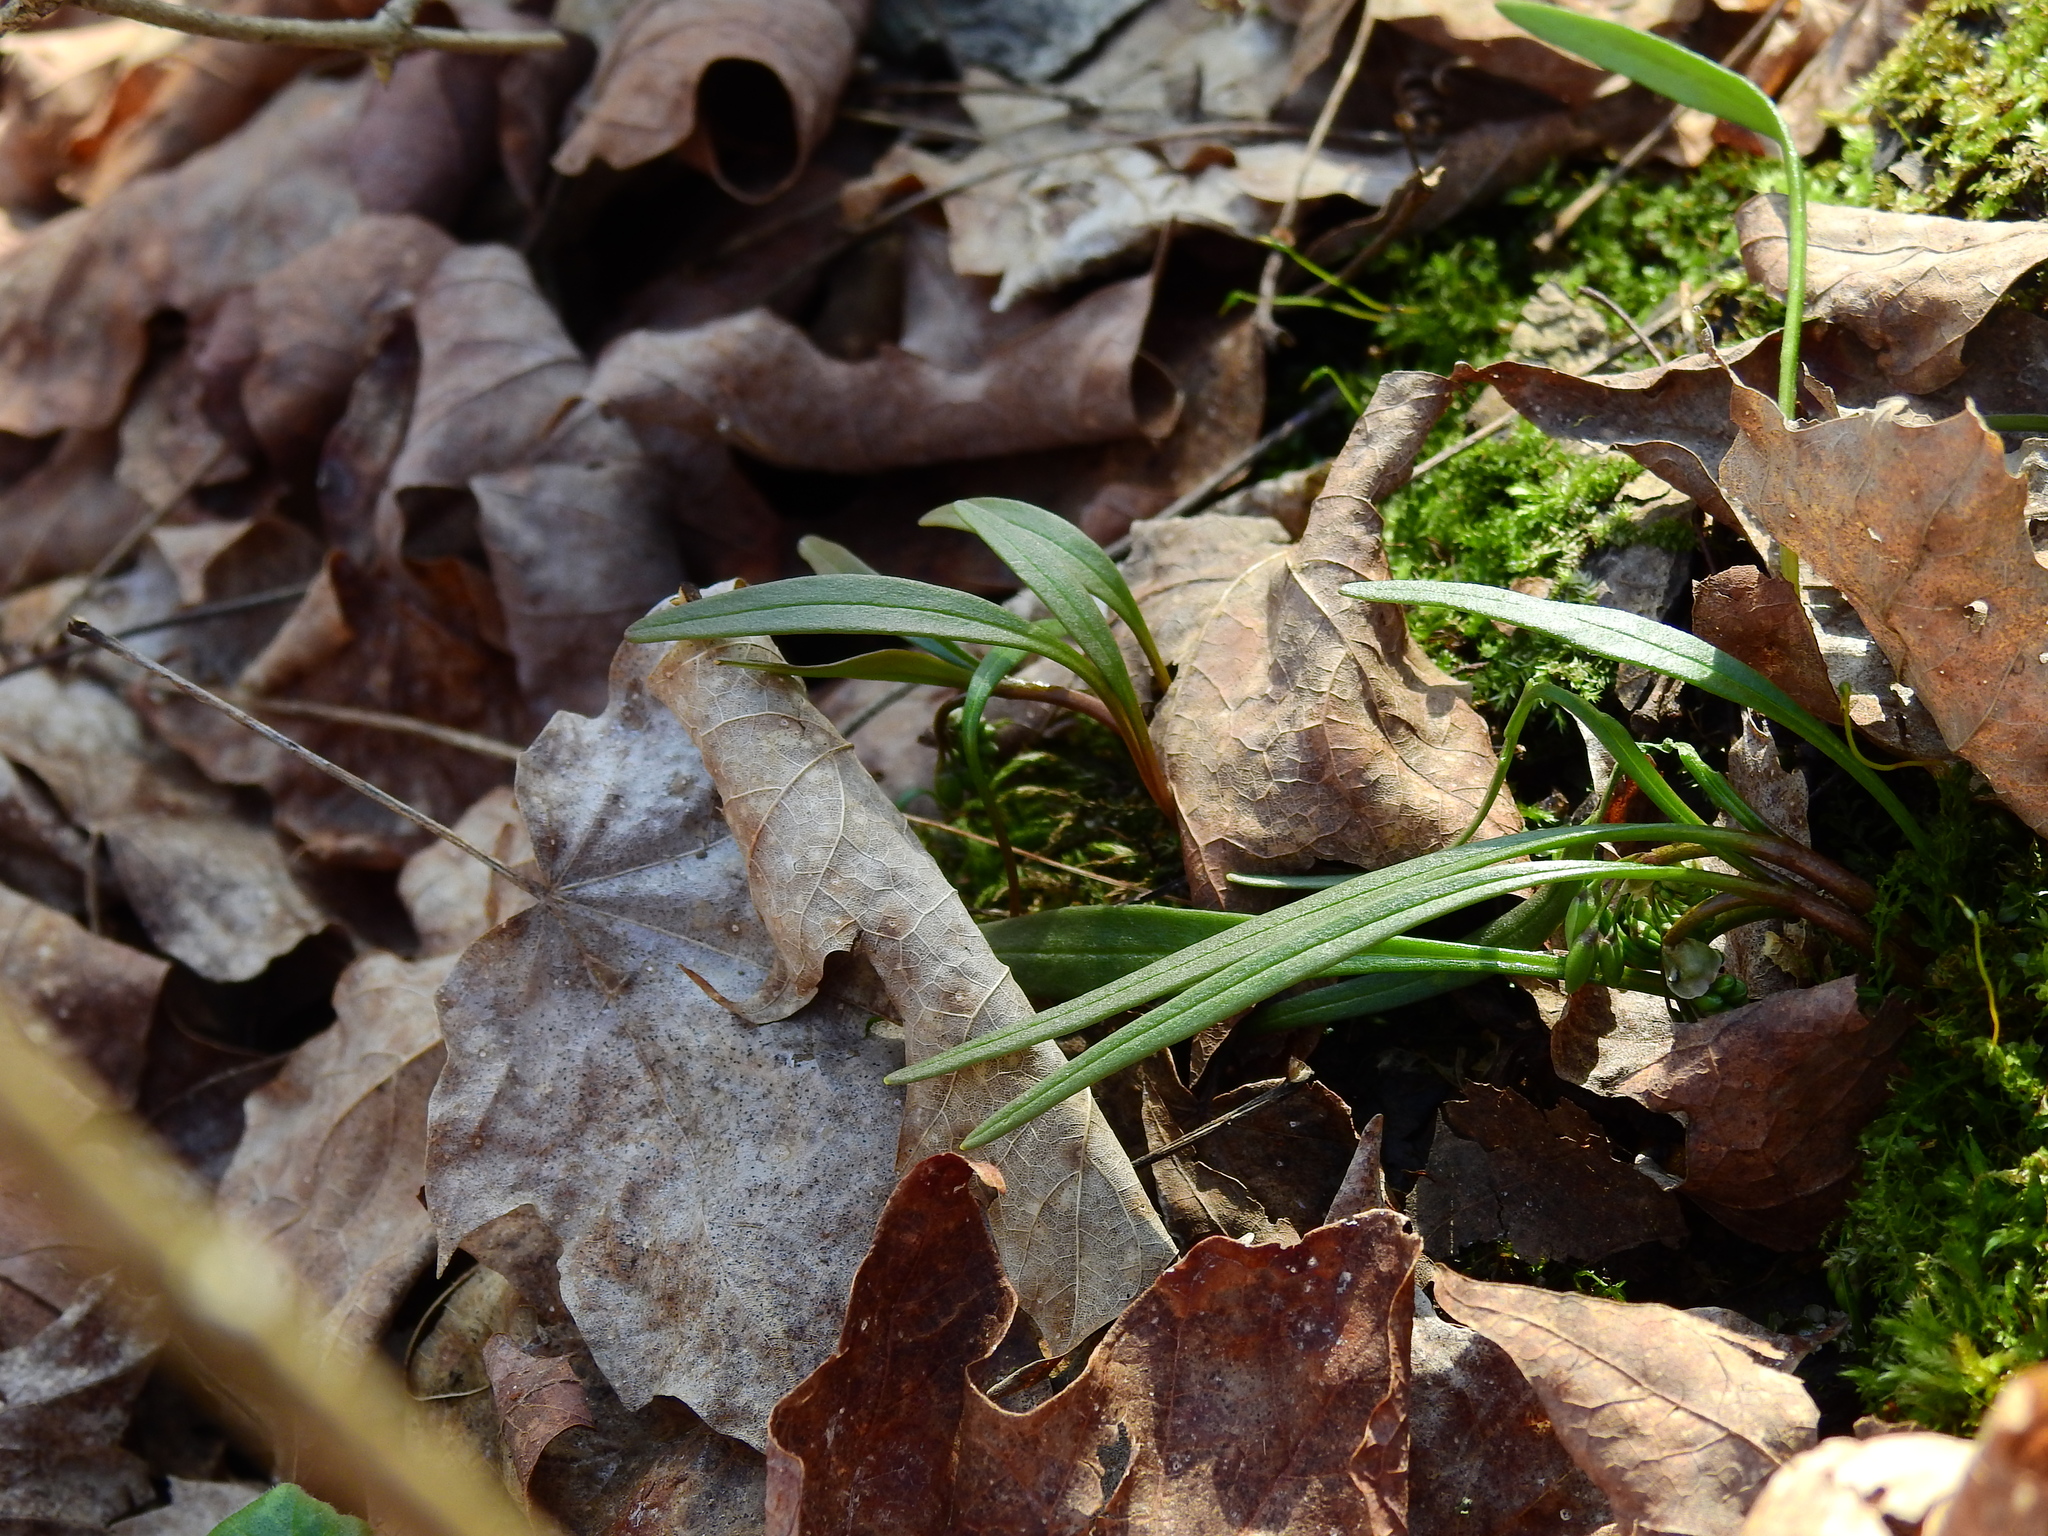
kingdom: Plantae
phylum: Tracheophyta
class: Magnoliopsida
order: Caryophyllales
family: Montiaceae
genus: Claytonia
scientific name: Claytonia virginica
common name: Virginia springbeauty
